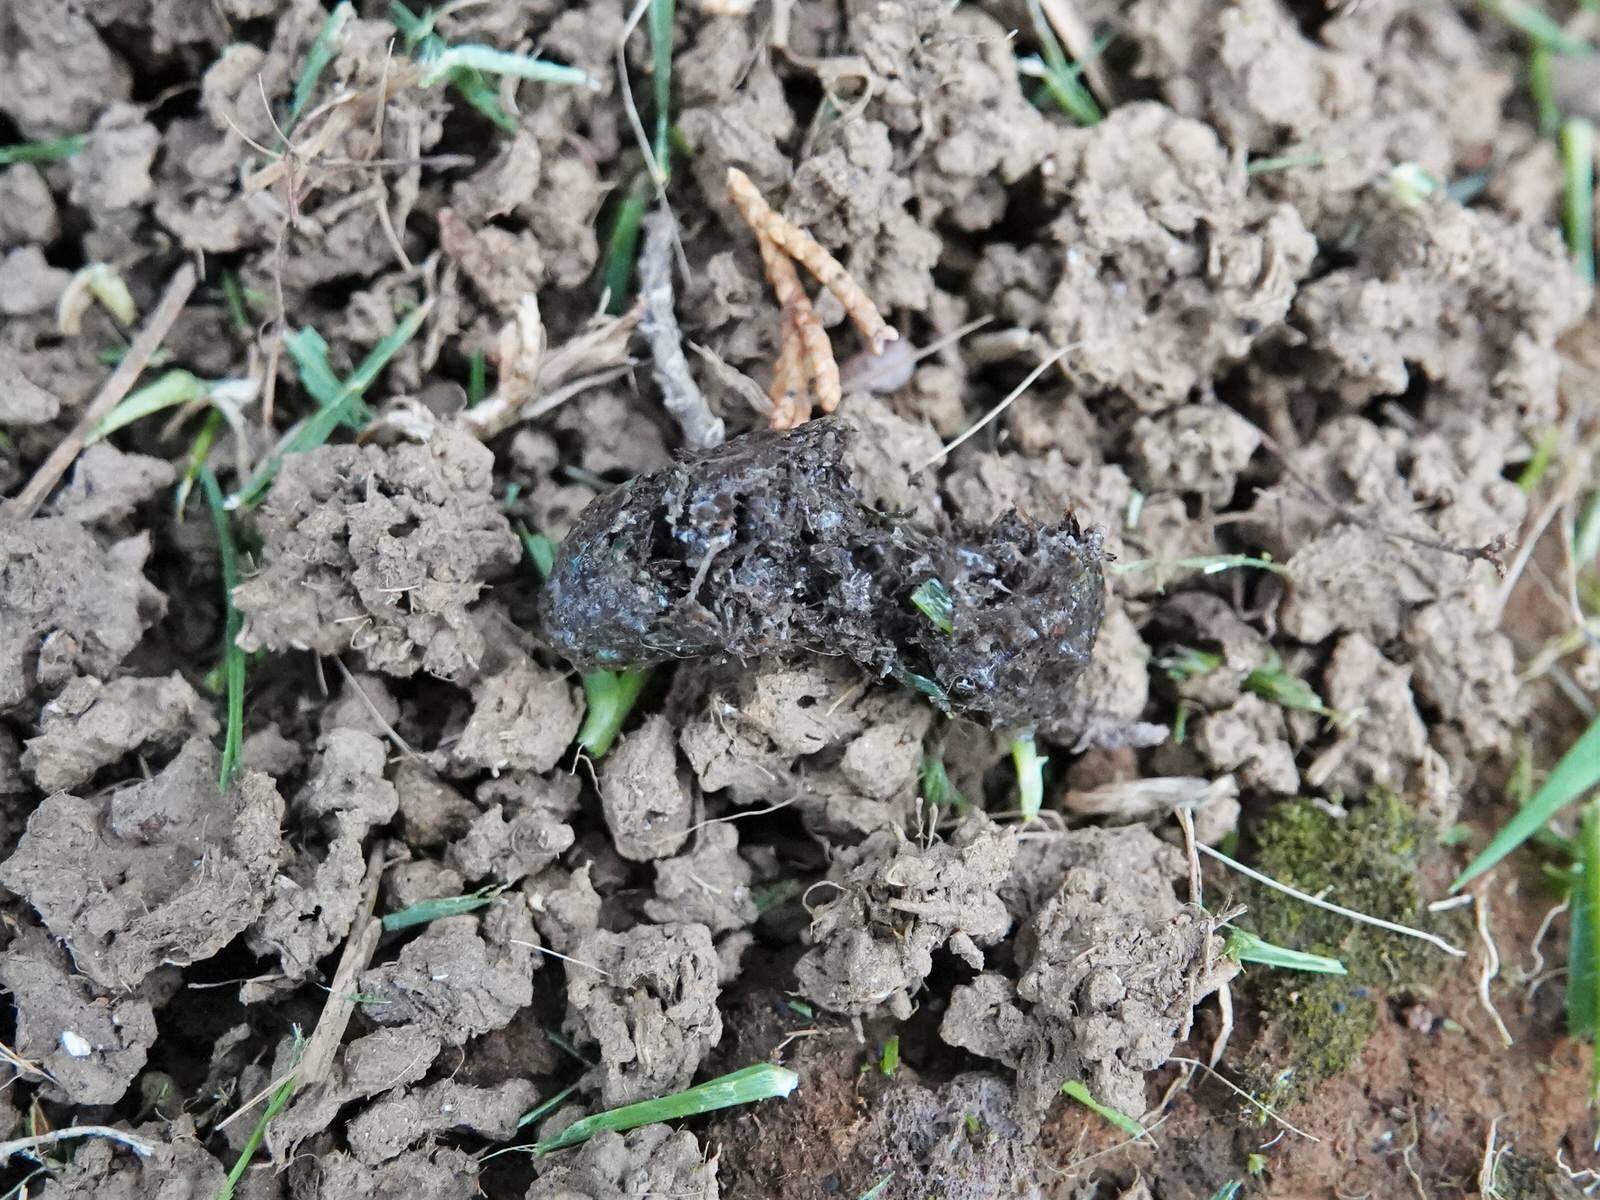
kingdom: Animalia
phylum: Chordata
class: Aves
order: Coraciiformes
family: Alcedinidae
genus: Todiramphus
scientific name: Todiramphus sanctus
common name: Sacred kingfisher
